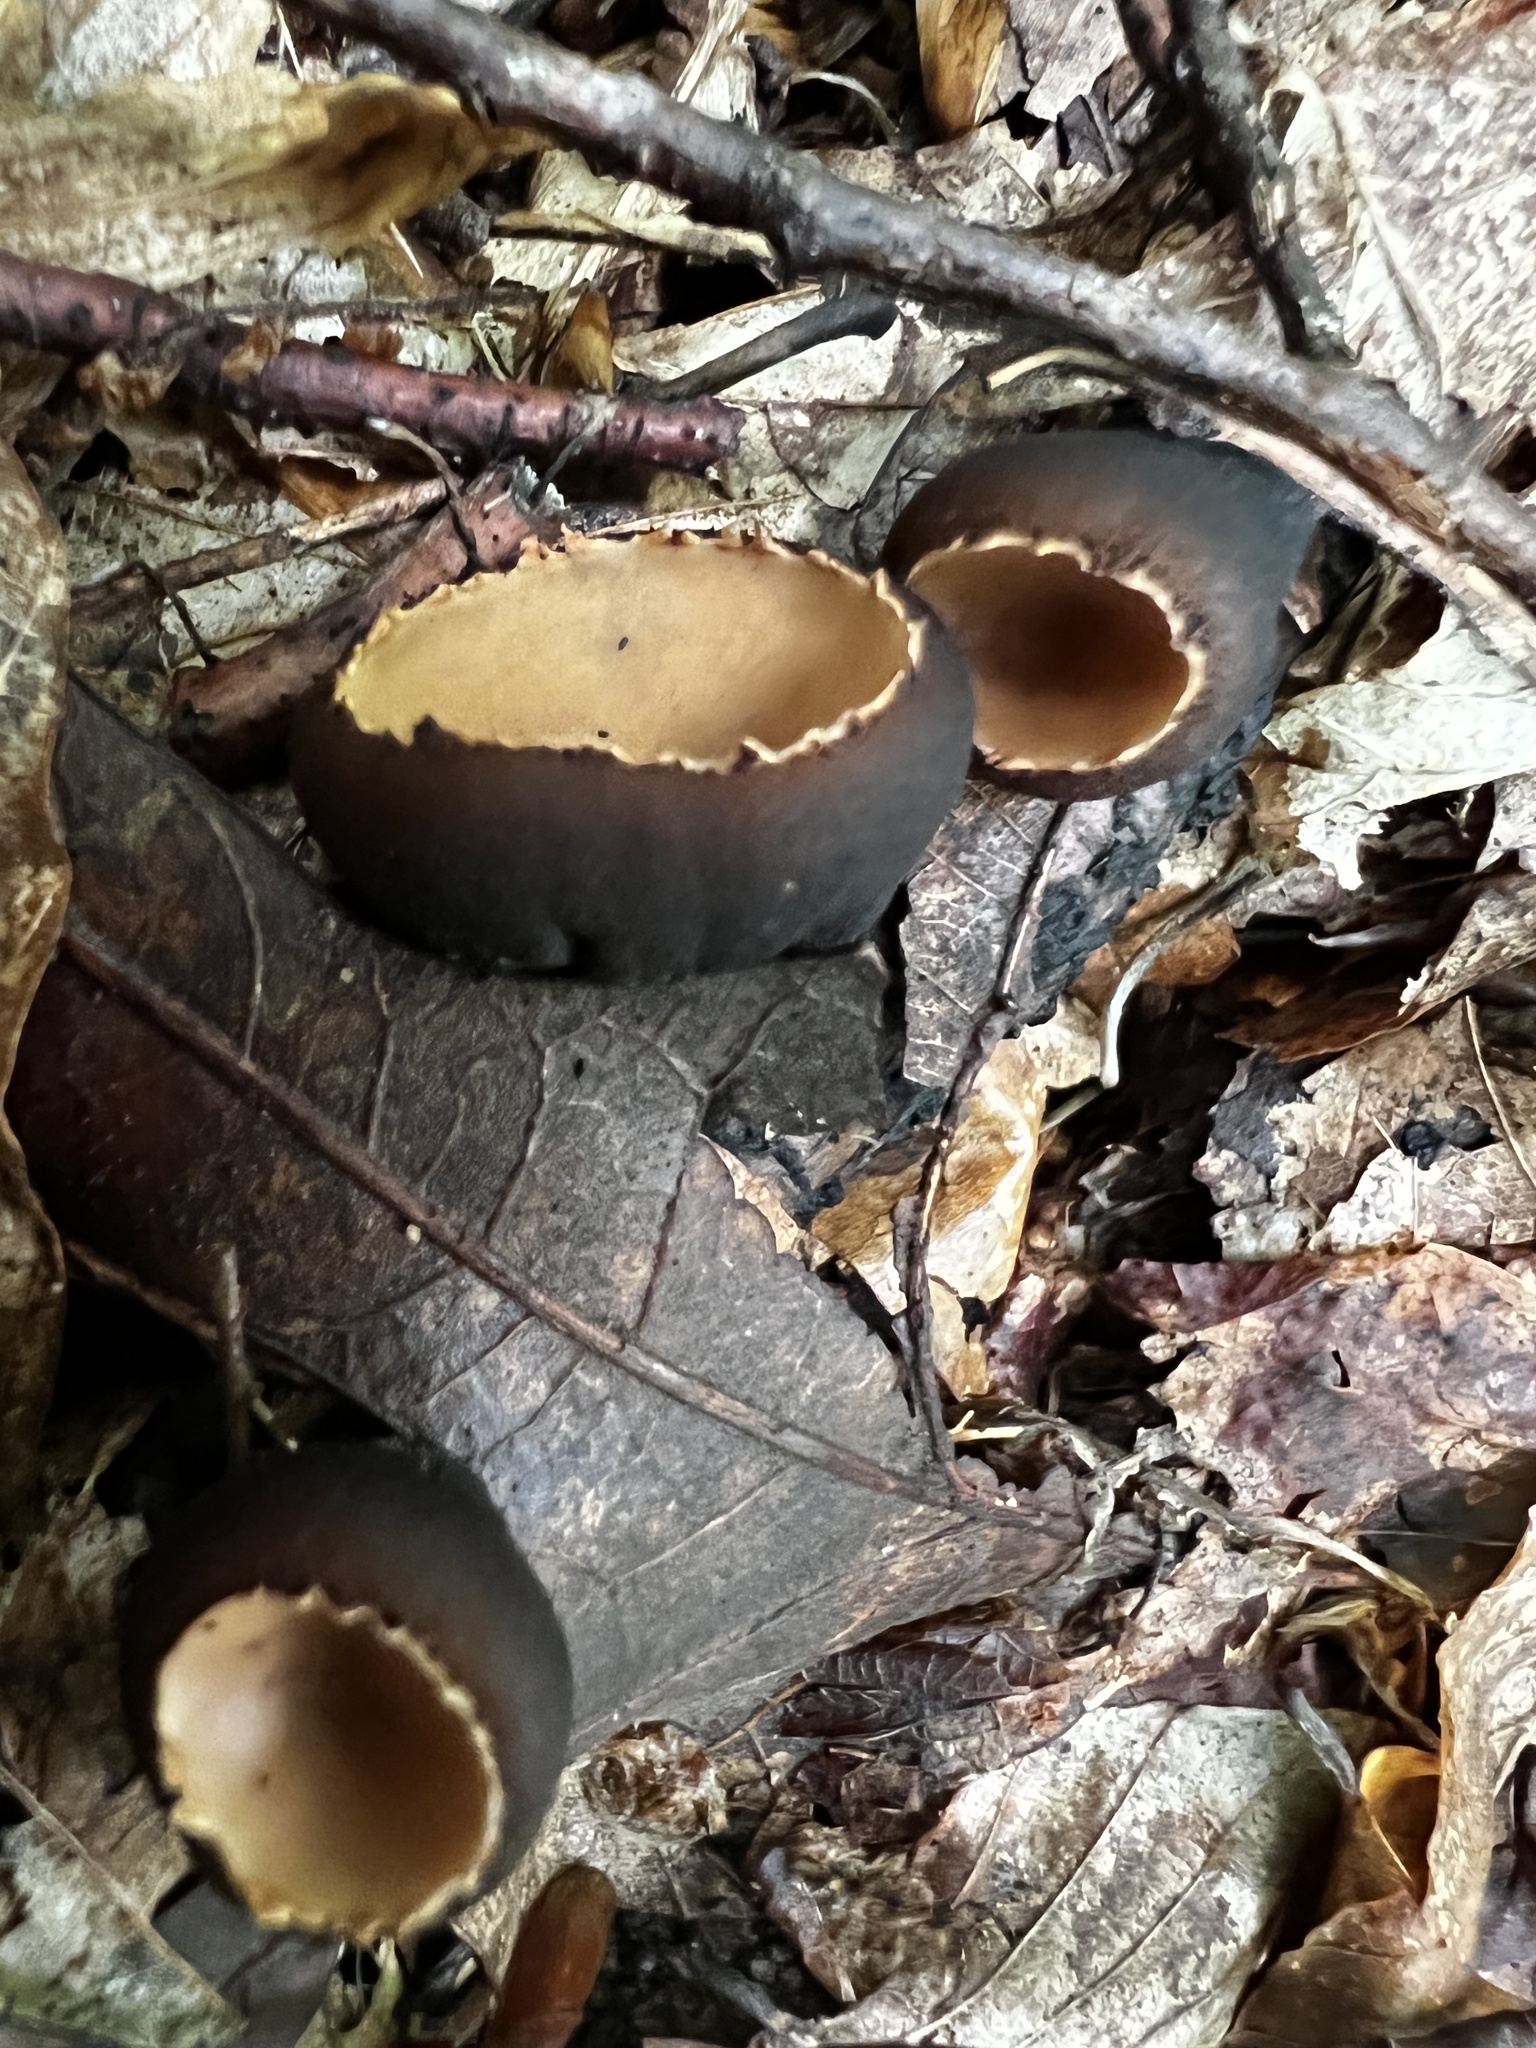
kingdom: Fungi
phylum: Ascomycota
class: Pezizomycetes
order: Pezizales
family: Sarcosomataceae
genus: Galiella
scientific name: Galiella rufa
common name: Hairy rubber cup
